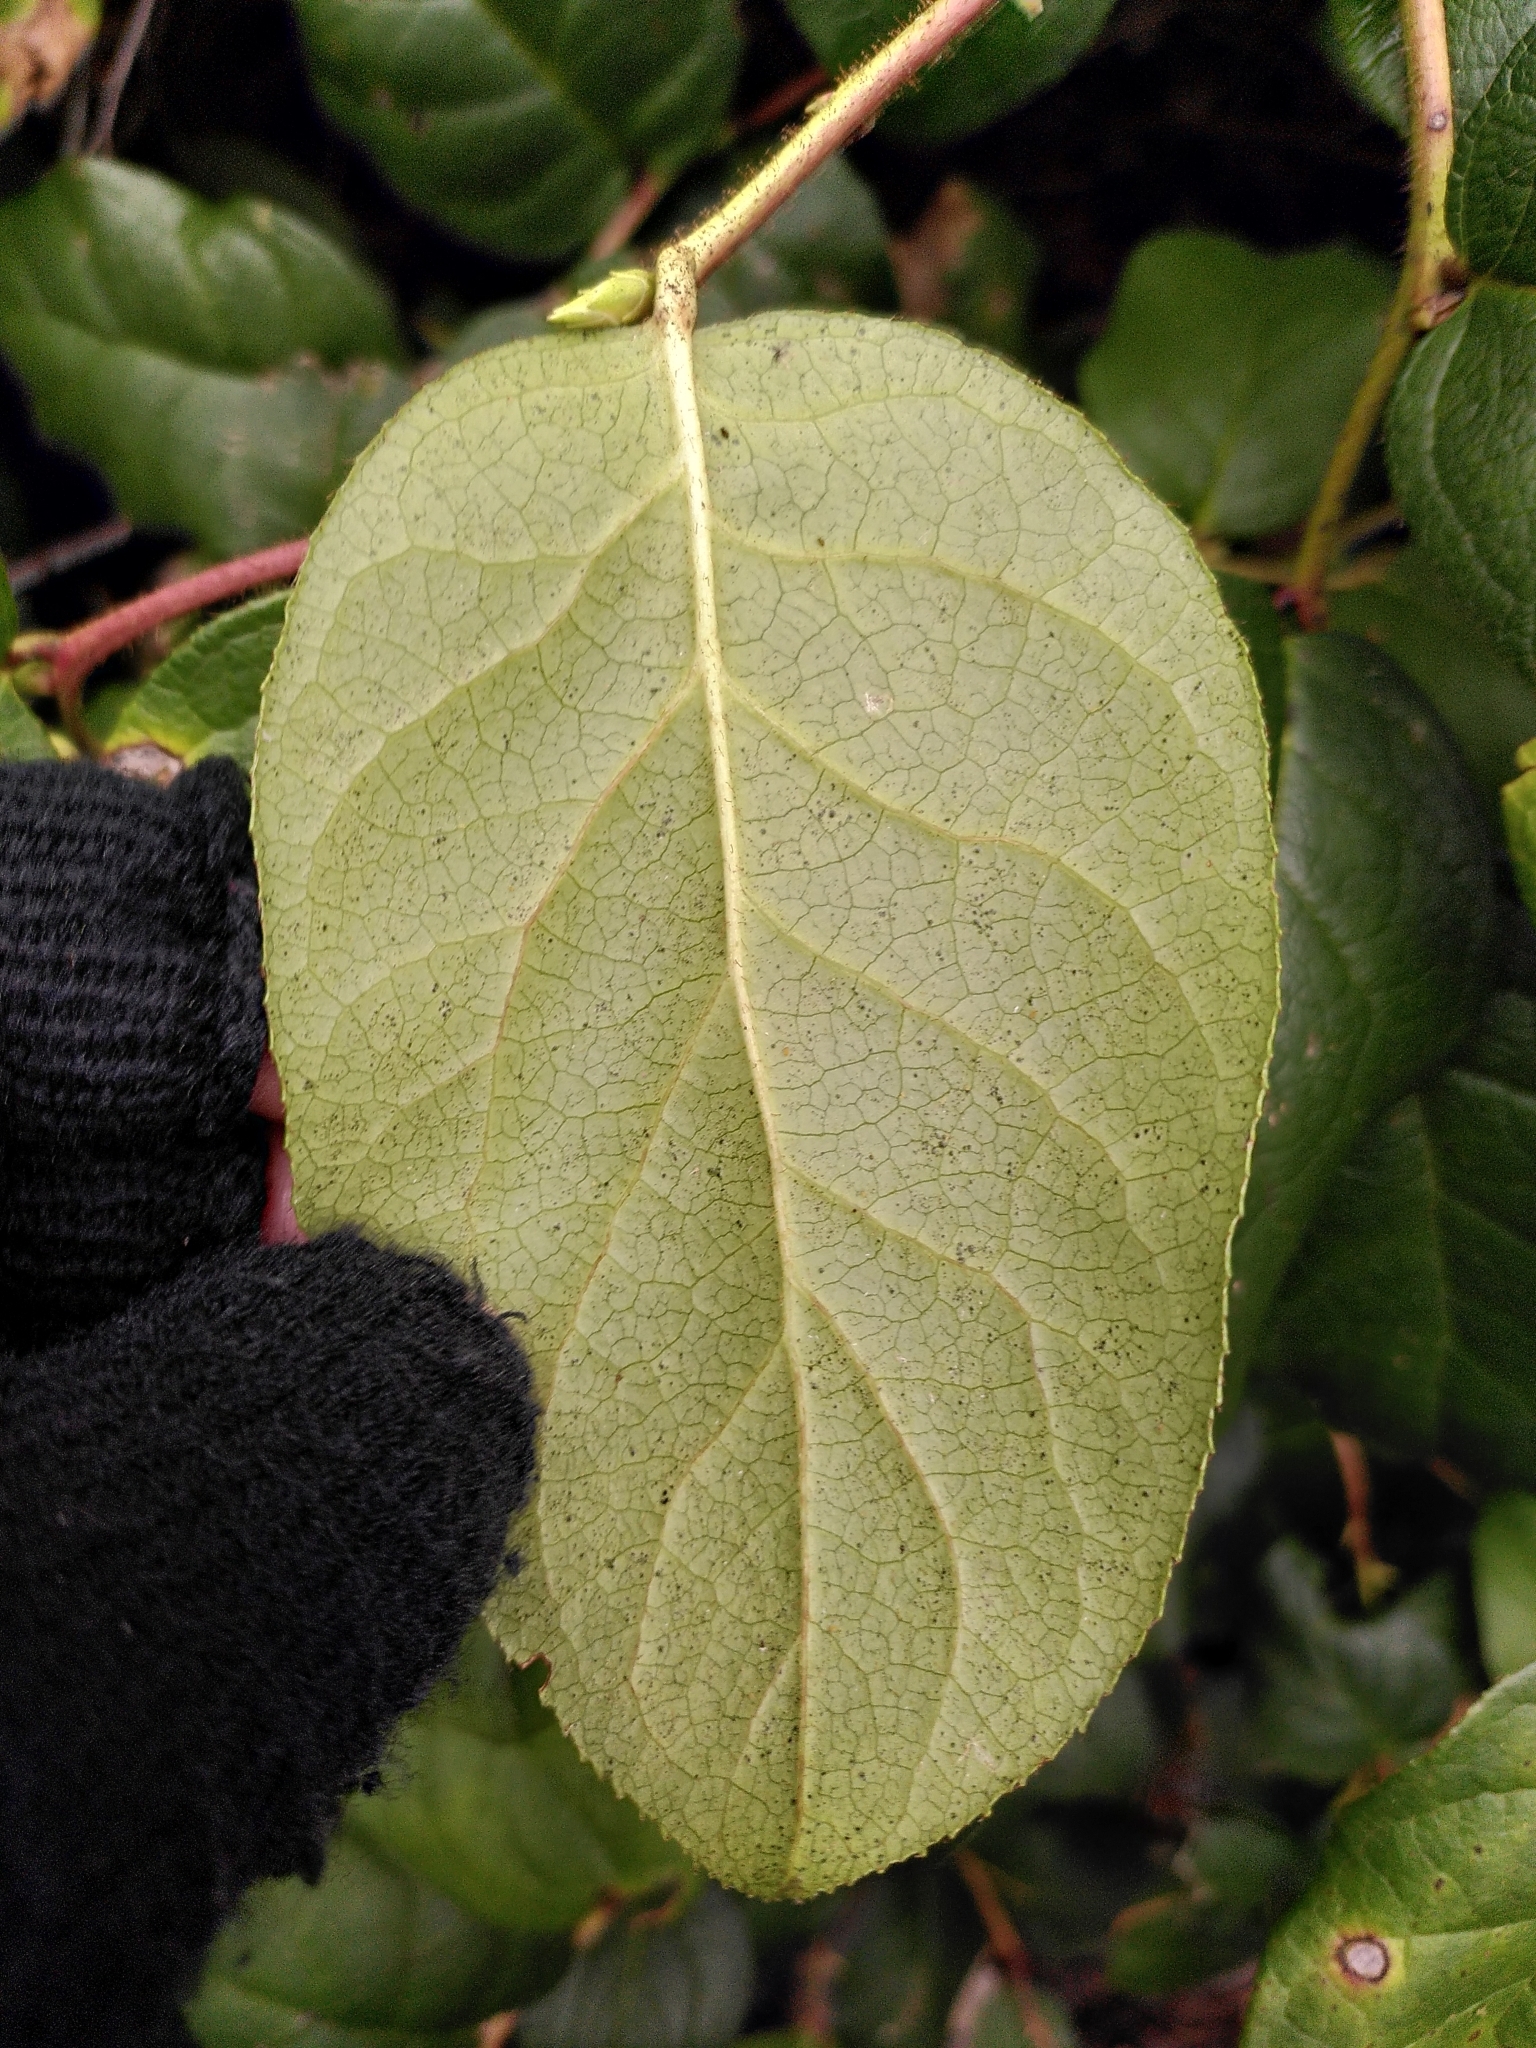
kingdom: Plantae
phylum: Tracheophyta
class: Magnoliopsida
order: Ericales
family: Ericaceae
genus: Gaultheria
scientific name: Gaultheria shallon
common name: Shallon
